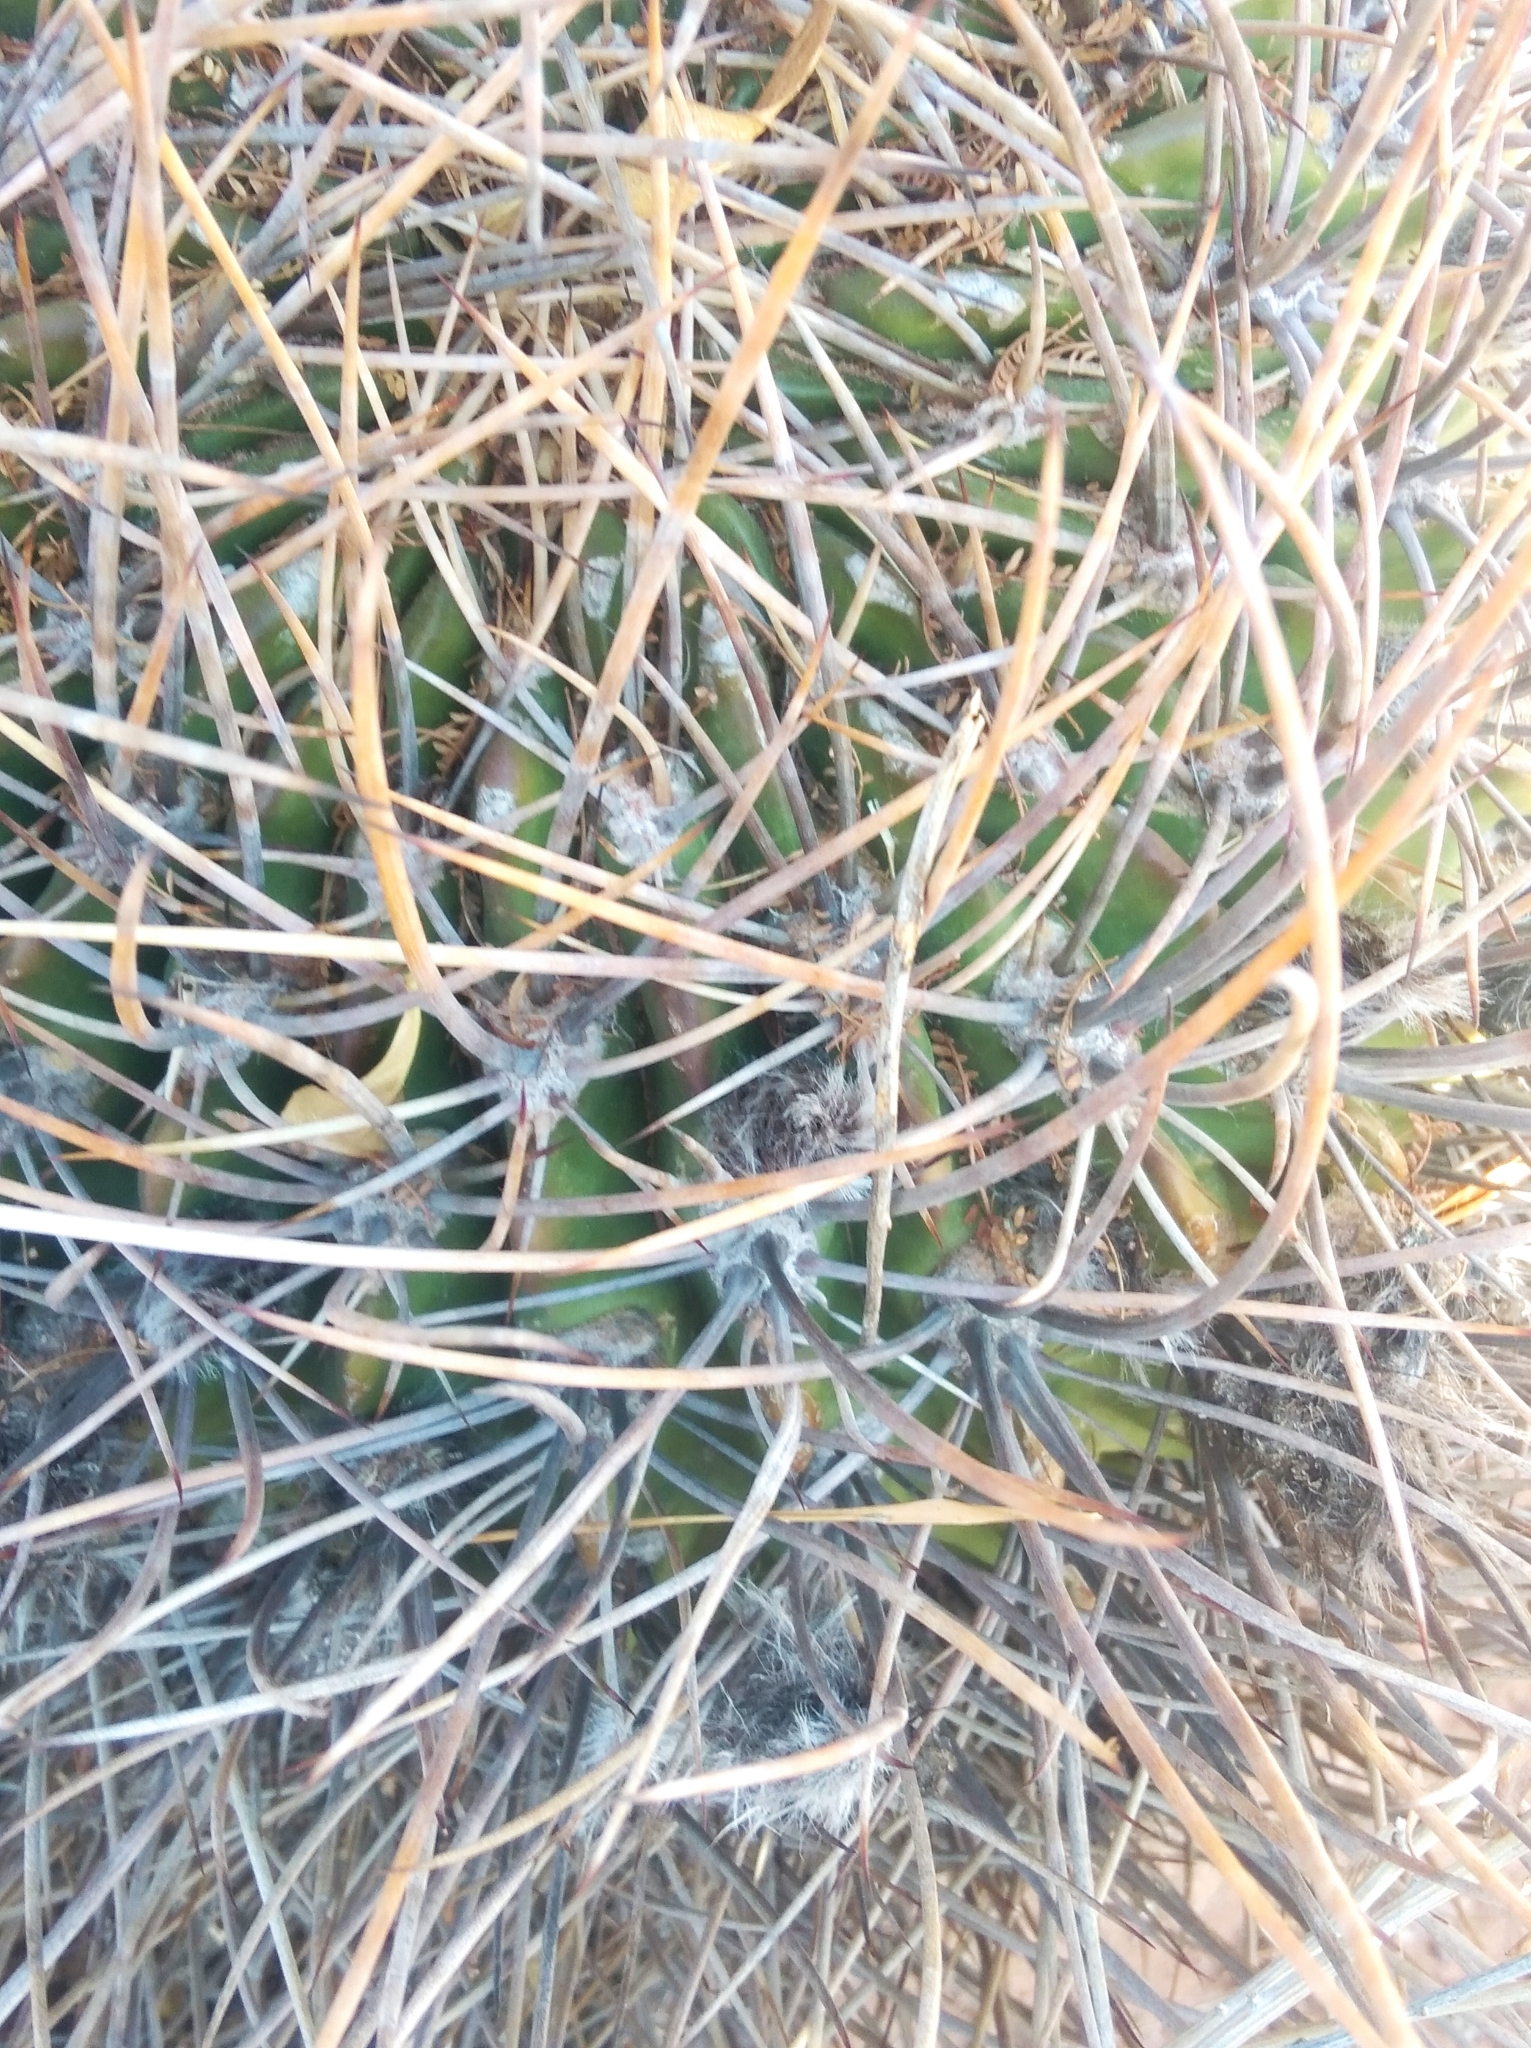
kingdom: Plantae
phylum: Tracheophyta
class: Magnoliopsida
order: Caryophyllales
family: Cactaceae
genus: Lobivia
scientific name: Lobivia ferox
